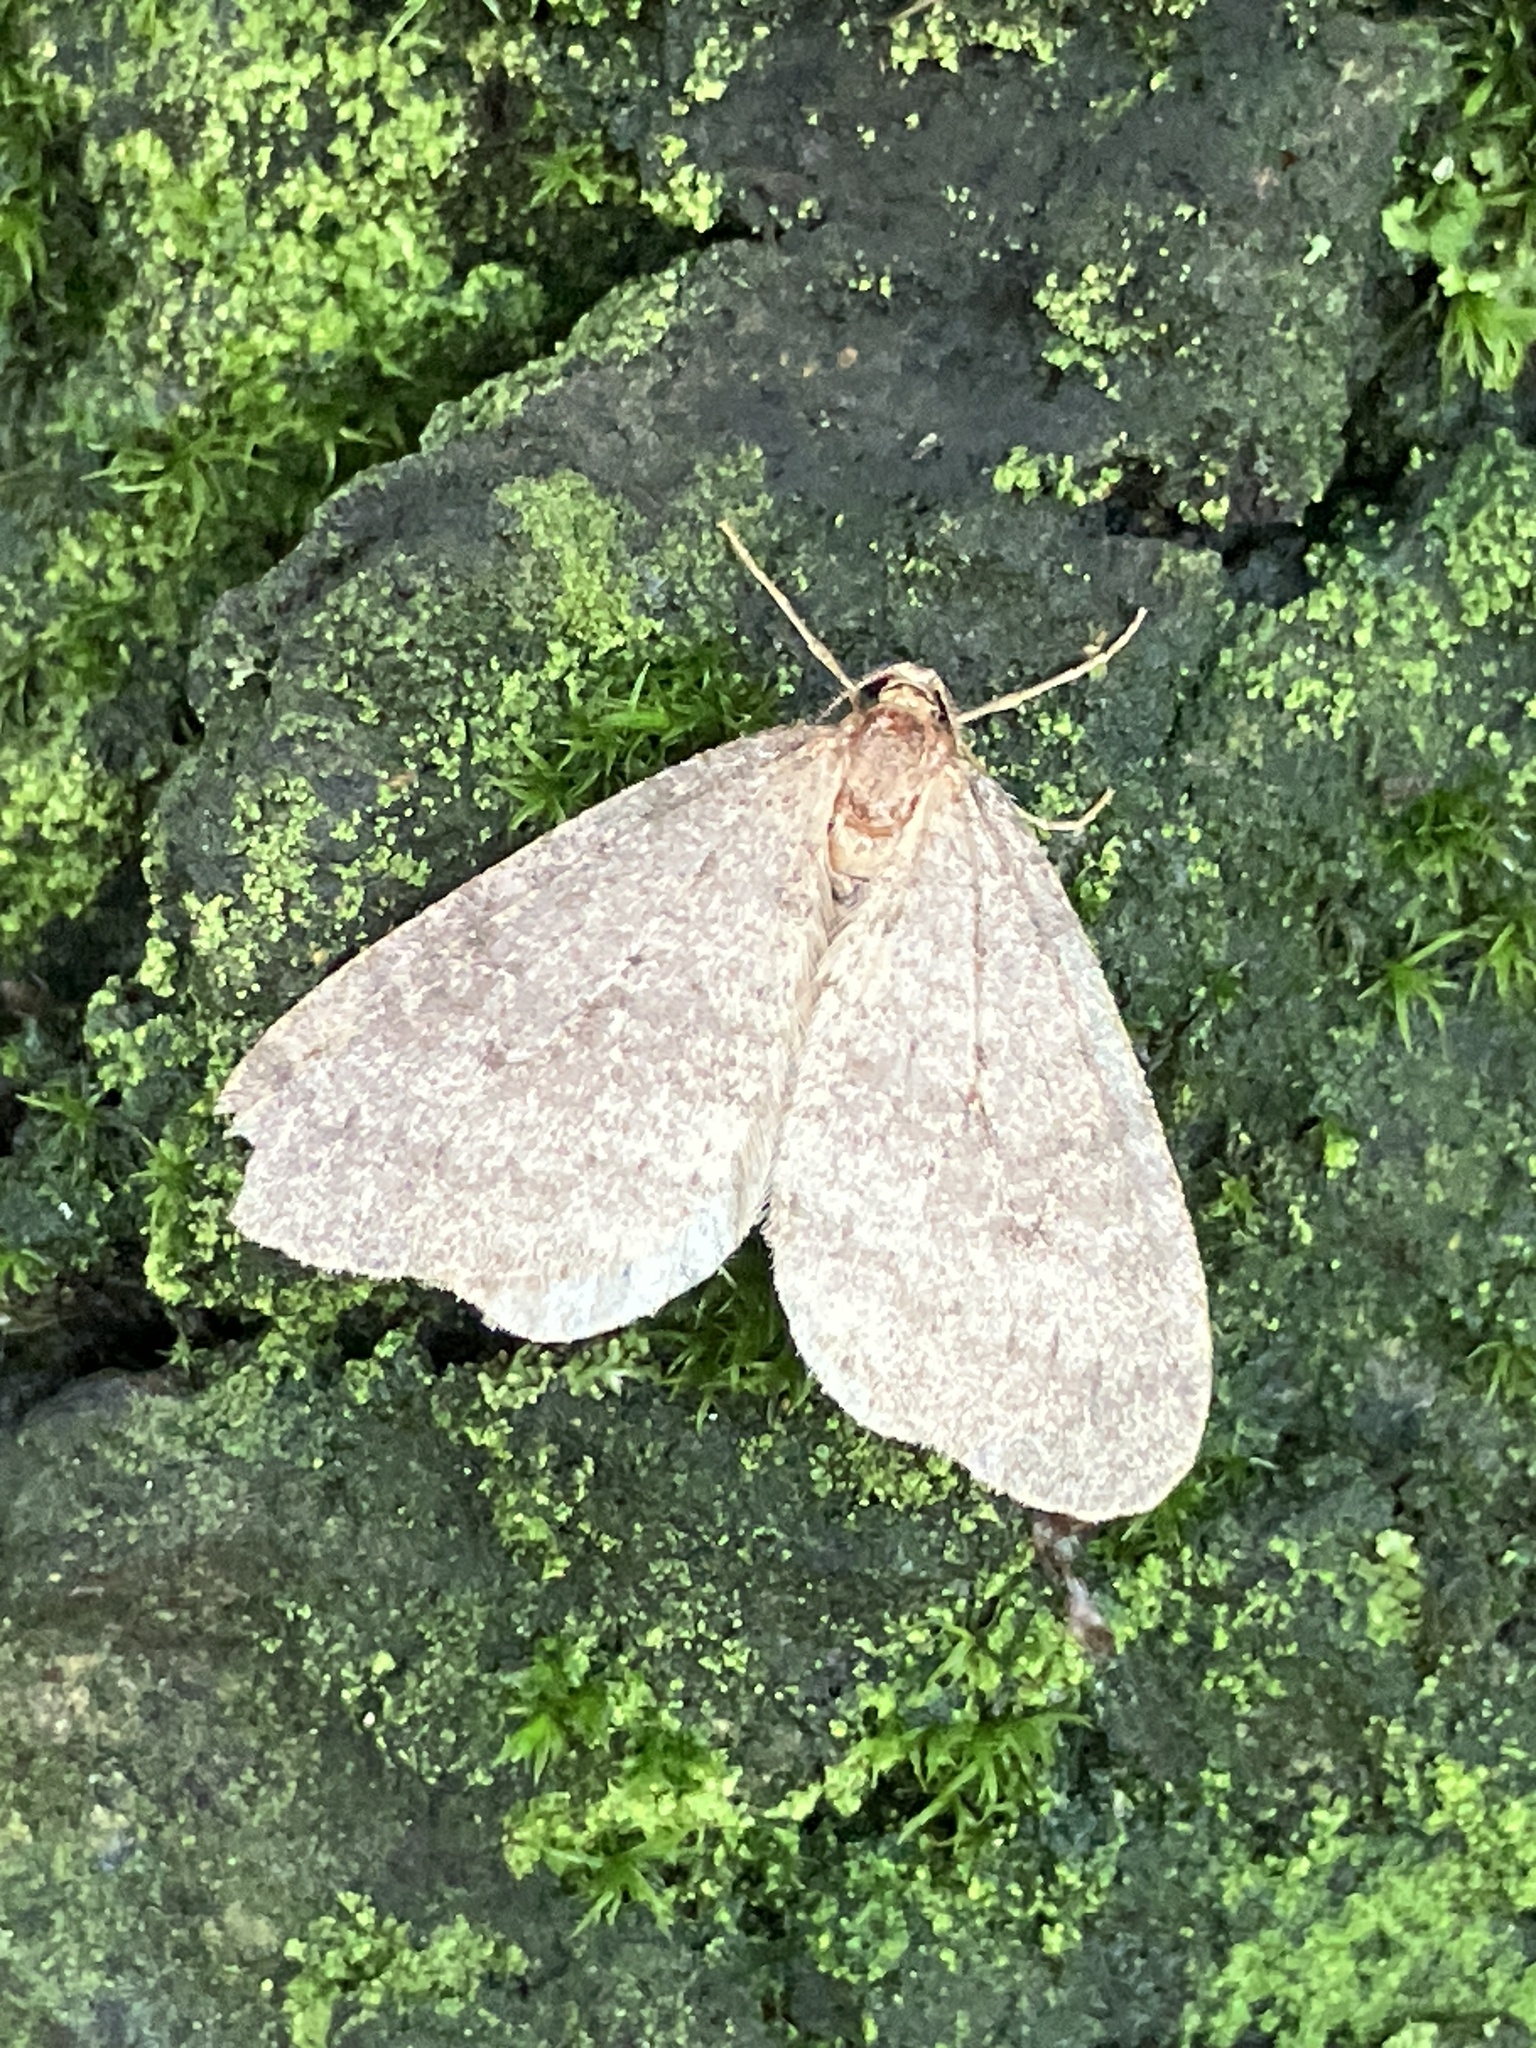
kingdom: Animalia
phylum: Arthropoda
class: Insecta
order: Lepidoptera
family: Geometridae
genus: Operophtera
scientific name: Operophtera brumata
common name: Winter moth
